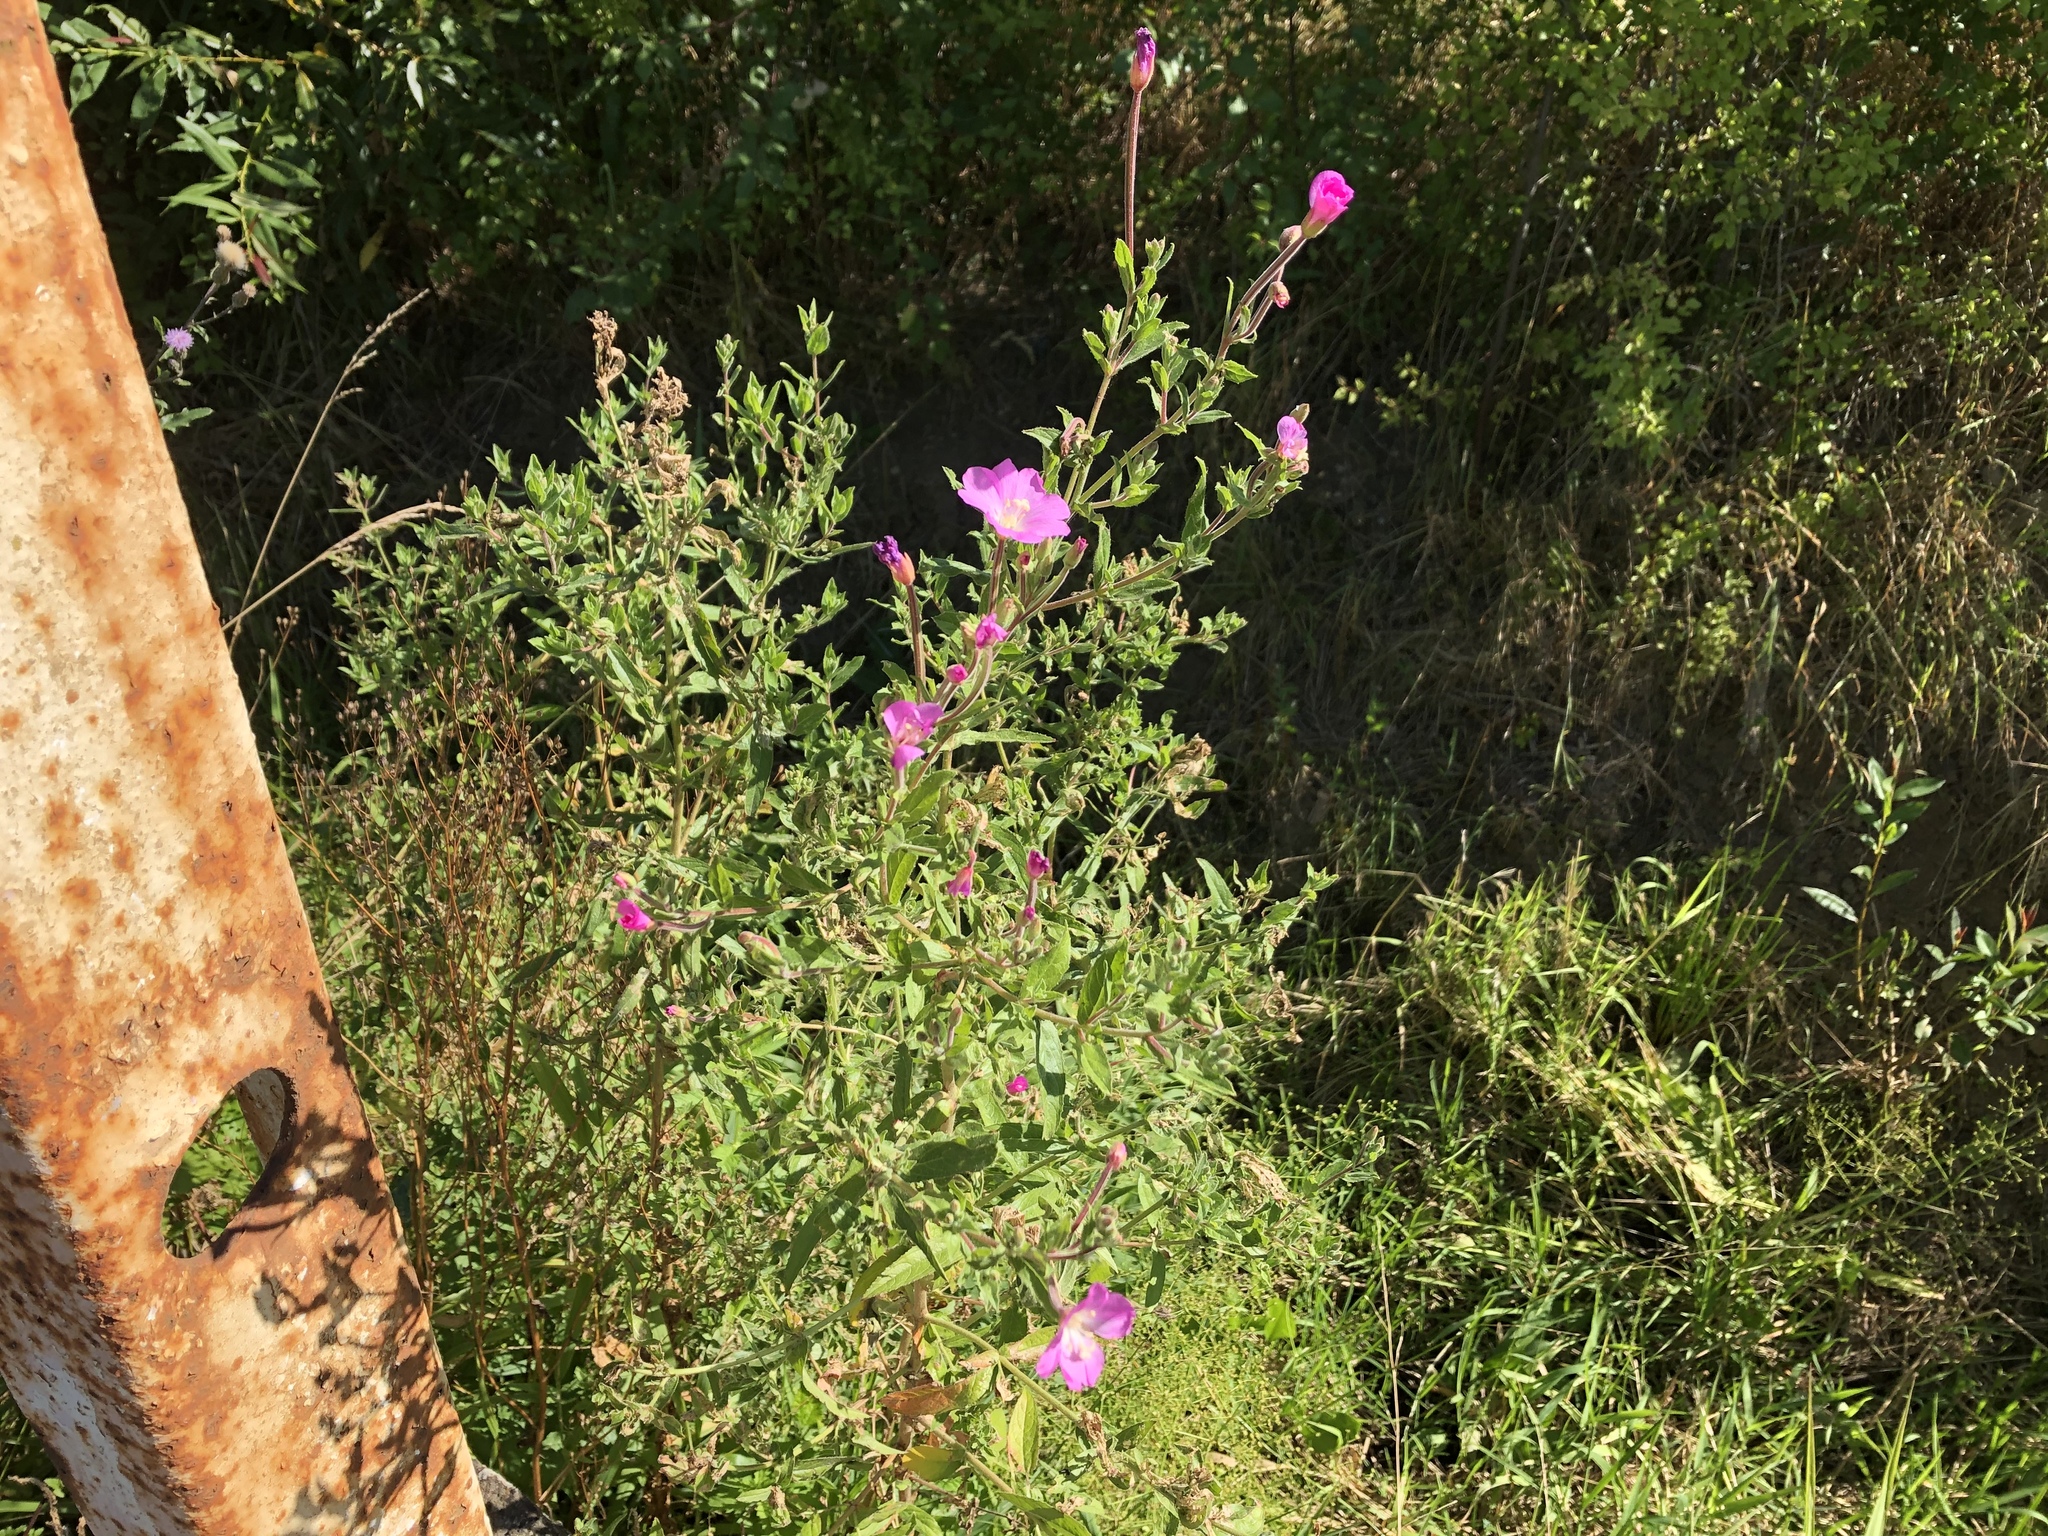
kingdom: Plantae
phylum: Tracheophyta
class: Magnoliopsida
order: Myrtales
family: Onagraceae
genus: Epilobium
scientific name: Epilobium hirsutum
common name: Great willowherb
